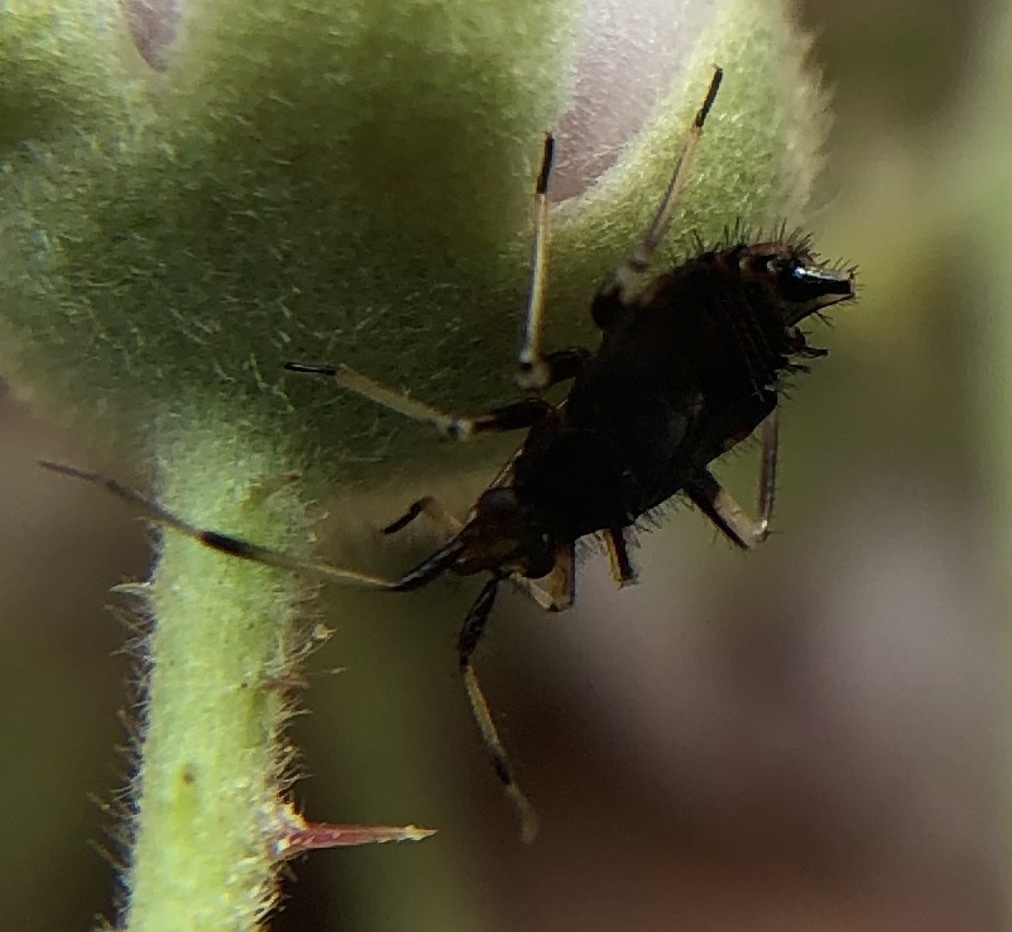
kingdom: Animalia
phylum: Arthropoda
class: Insecta
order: Hemiptera
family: Miridae
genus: Deraeocoris
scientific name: Deraeocoris ruber
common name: Plant bug
